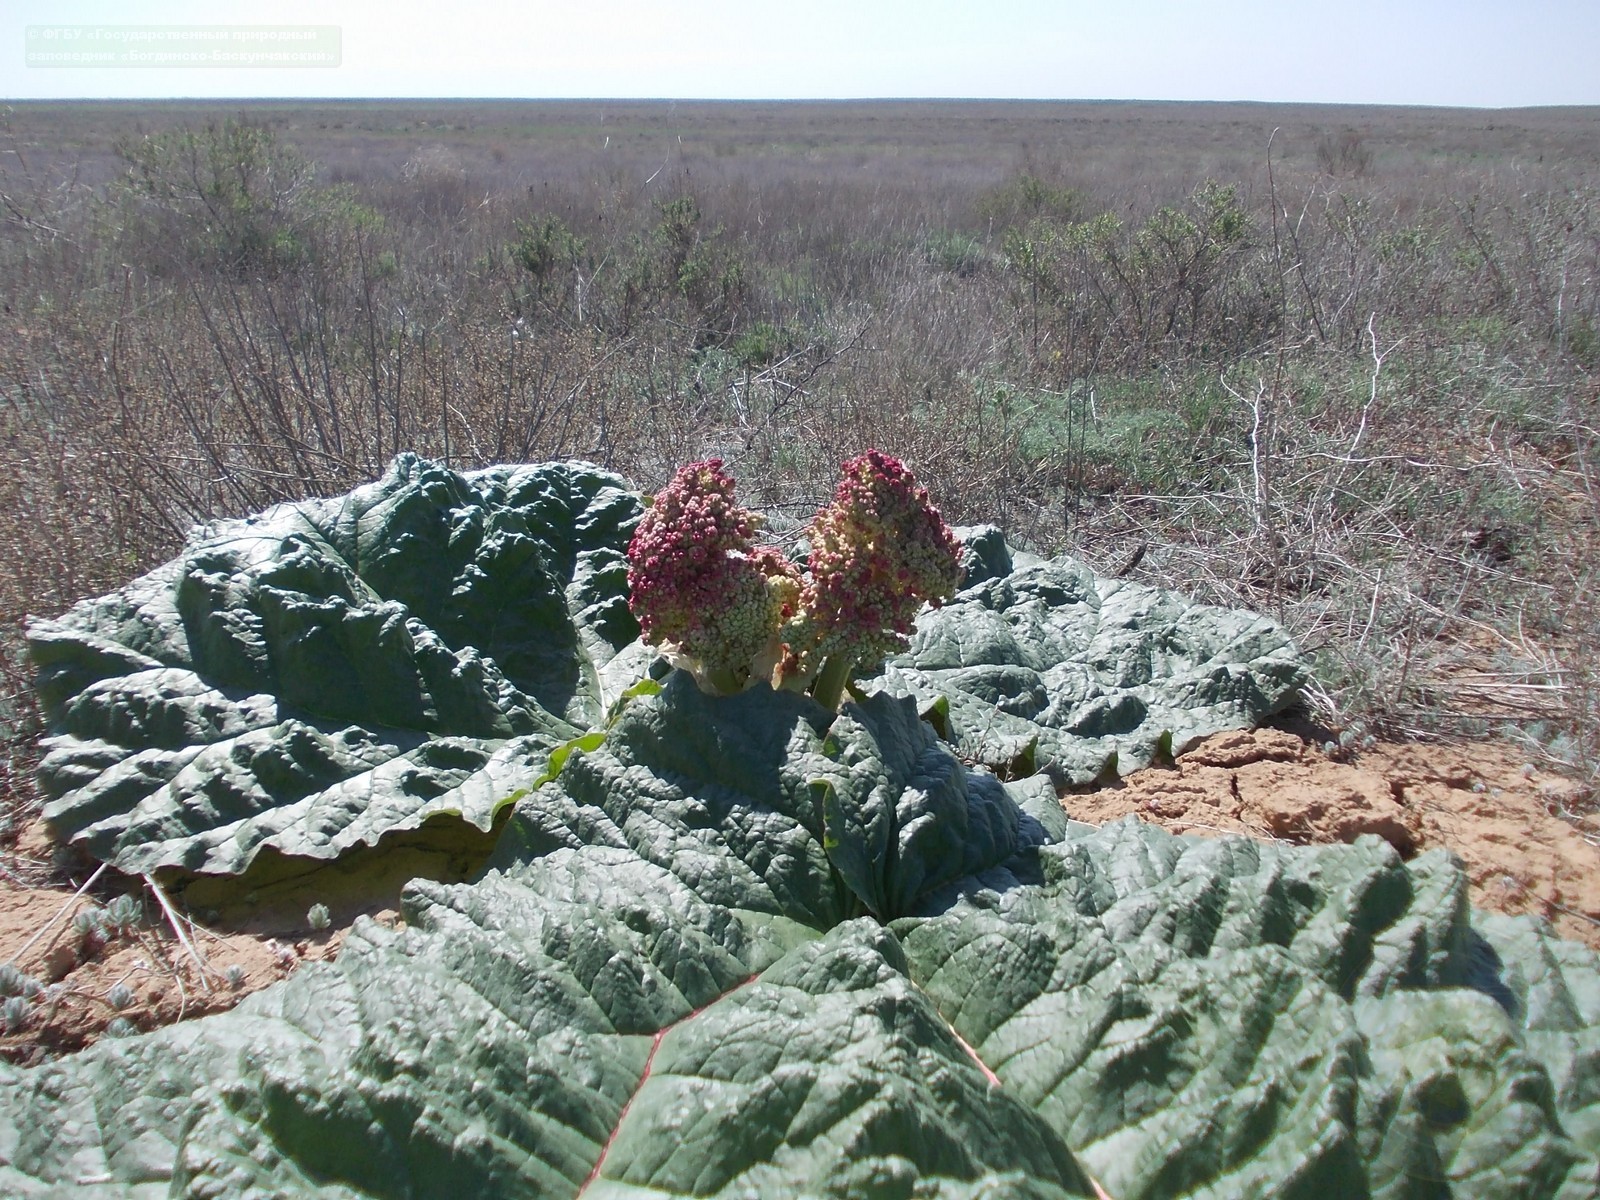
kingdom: Plantae
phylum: Tracheophyta
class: Magnoliopsida
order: Caryophyllales
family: Polygonaceae
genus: Rheum
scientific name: Rheum tataricum
